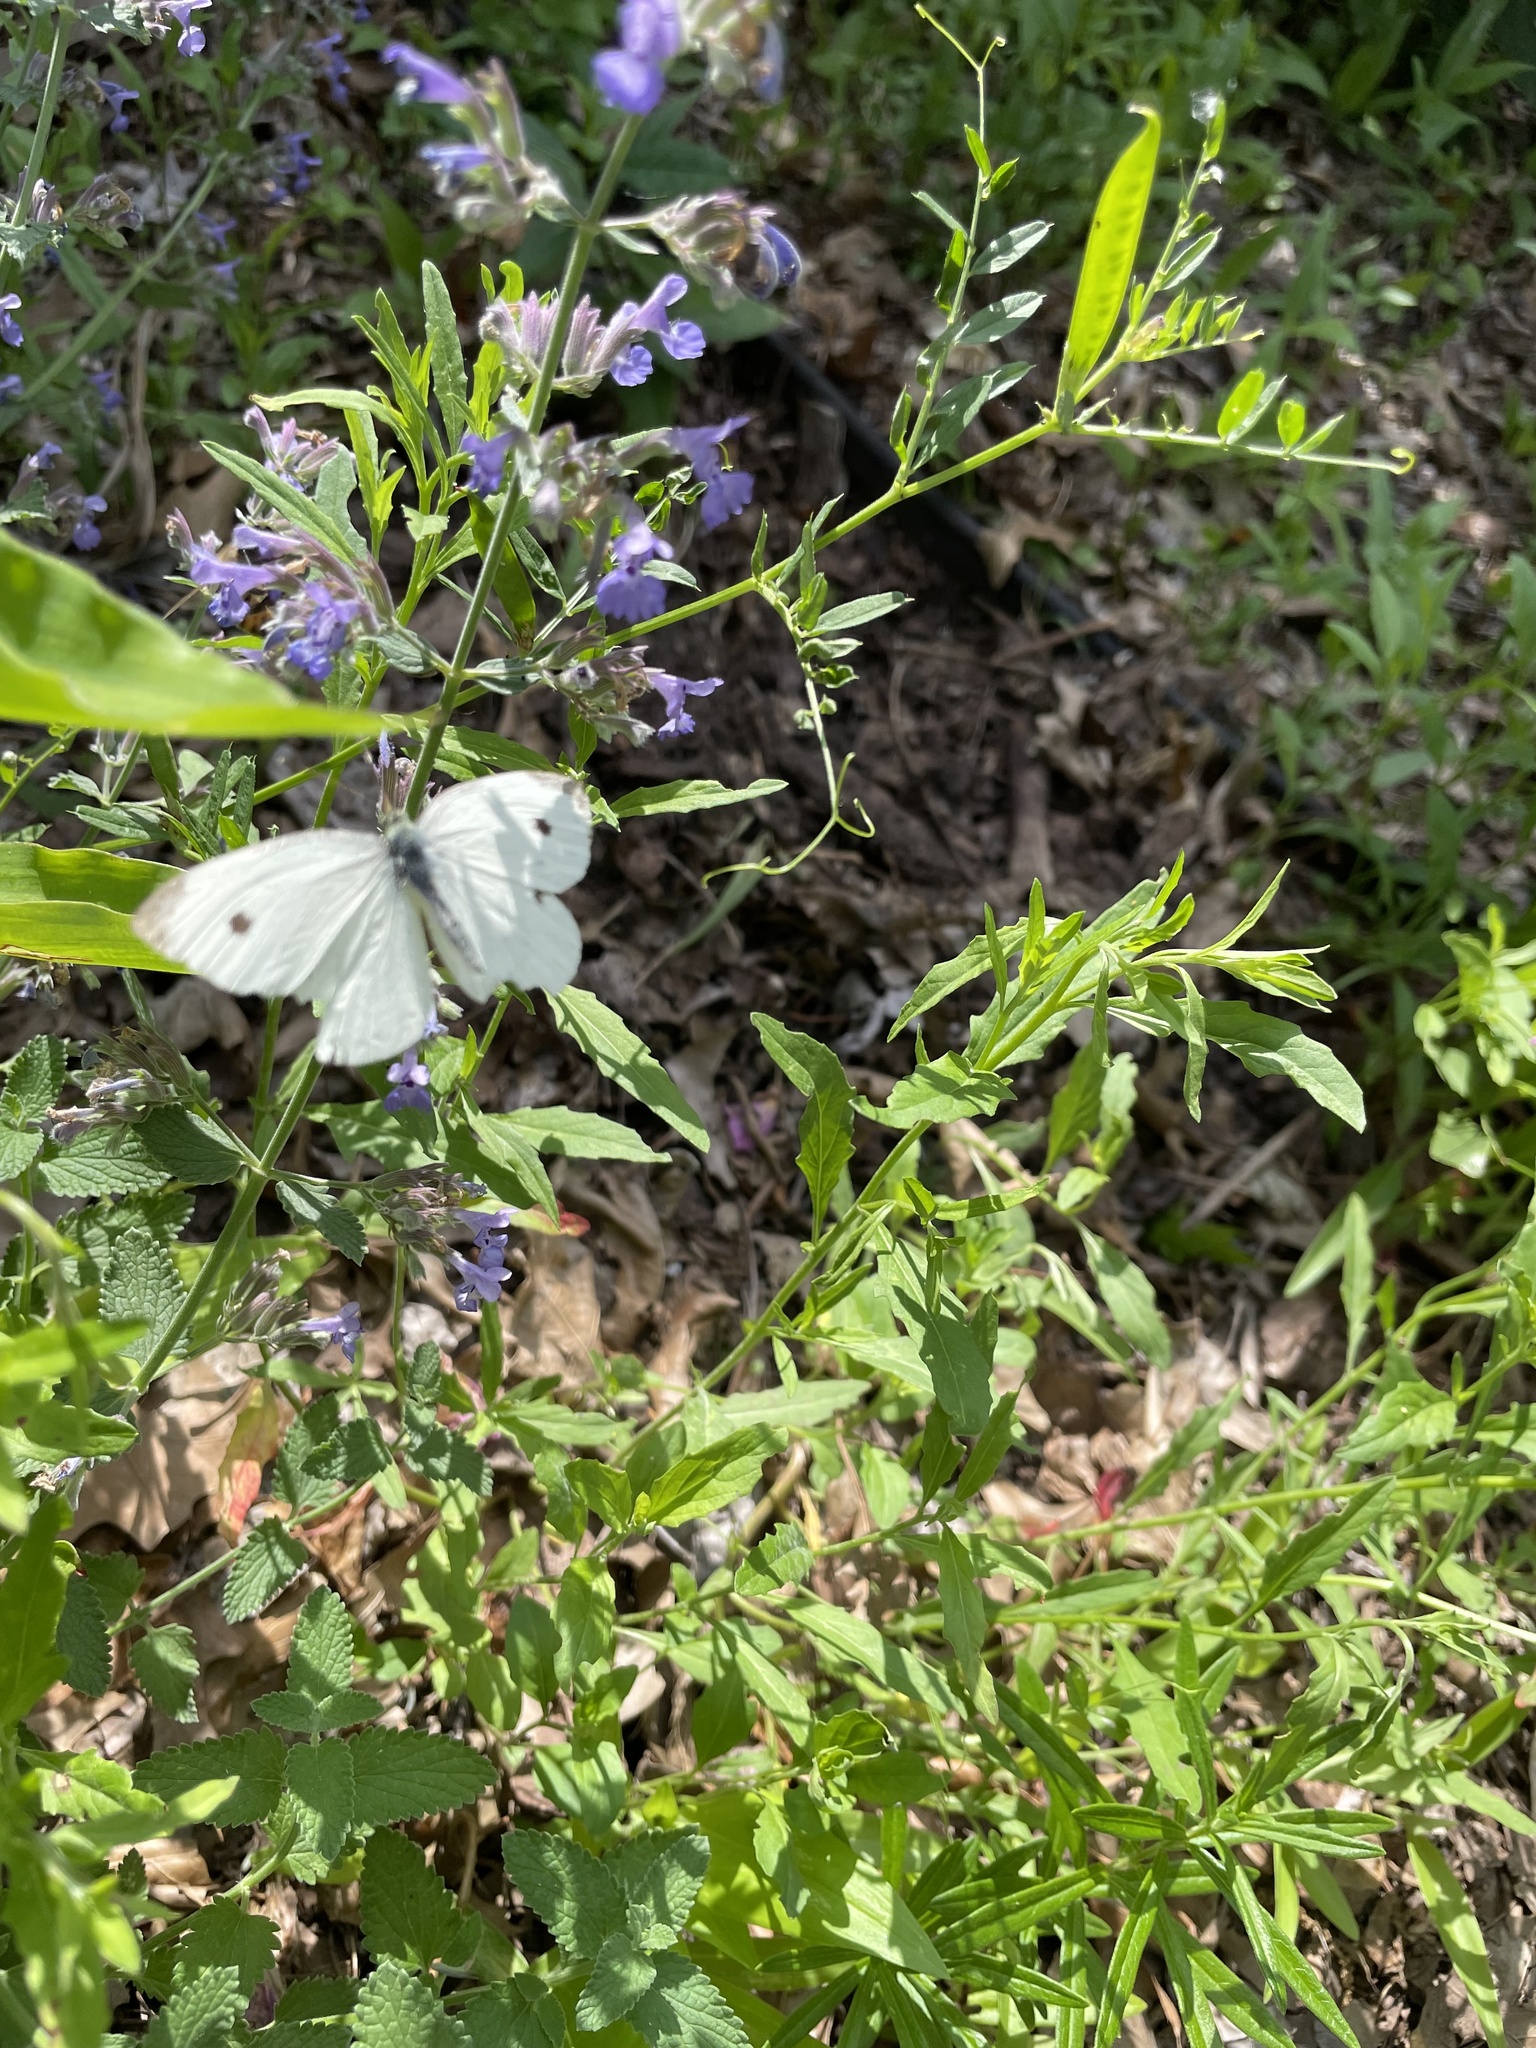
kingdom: Animalia
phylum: Arthropoda
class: Insecta
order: Lepidoptera
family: Pieridae
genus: Pieris
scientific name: Pieris rapae
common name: Small white
